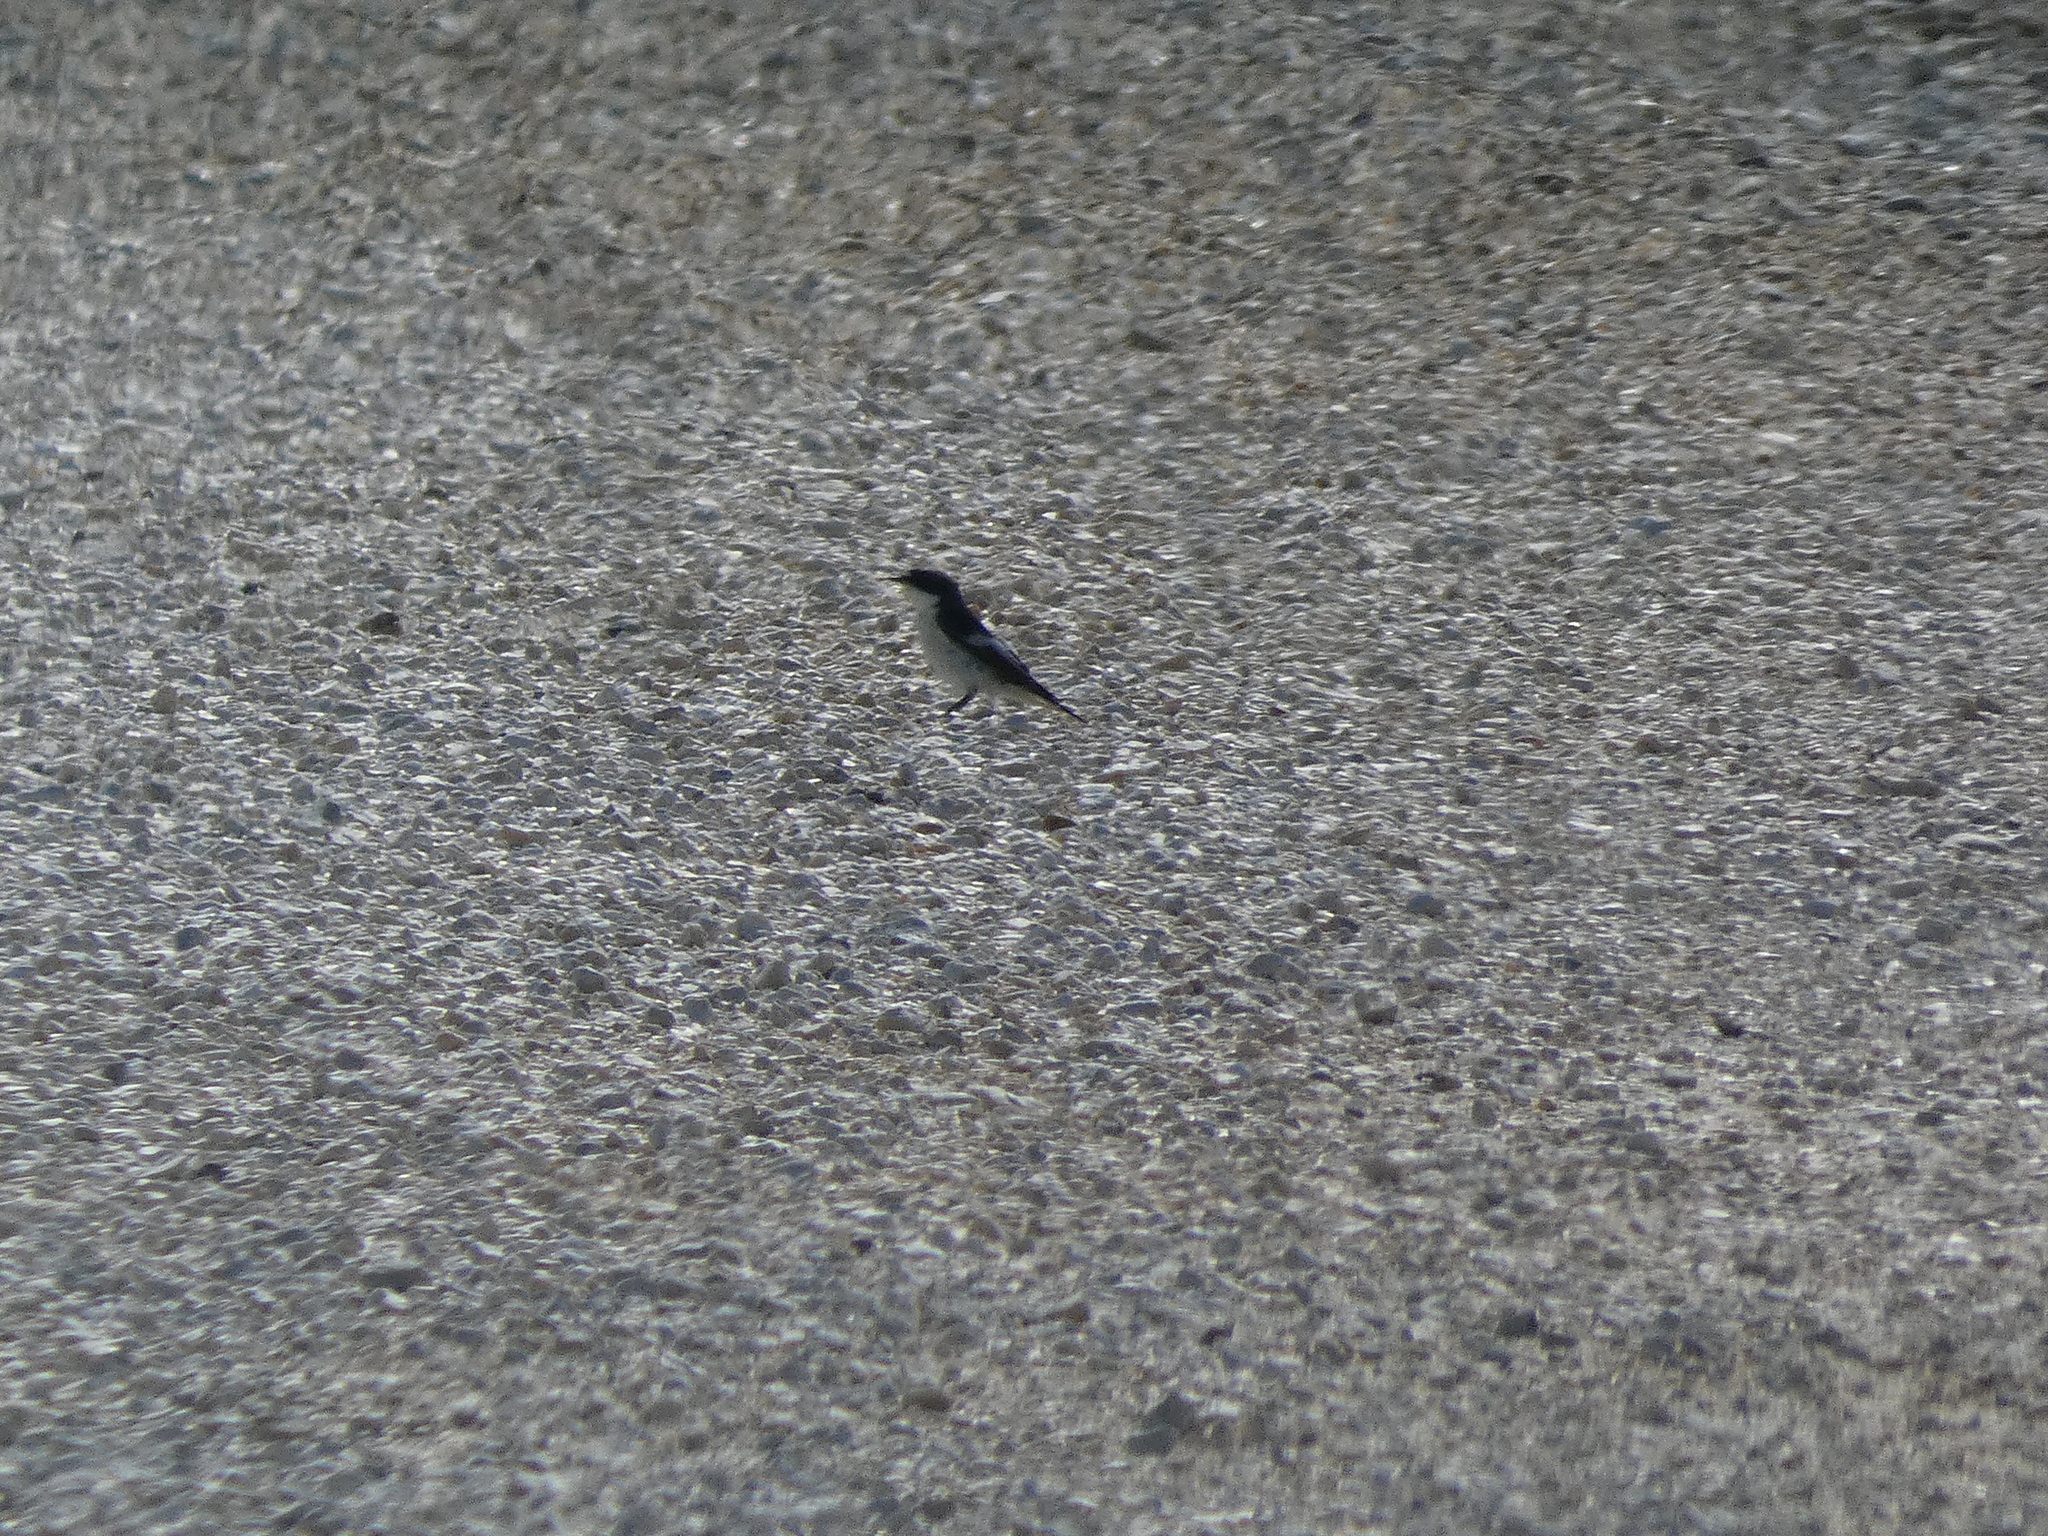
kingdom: Animalia
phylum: Chordata
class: Aves
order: Passeriformes
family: Muscicapidae
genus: Ficedula
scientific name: Ficedula hypoleuca
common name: European pied flycatcher
